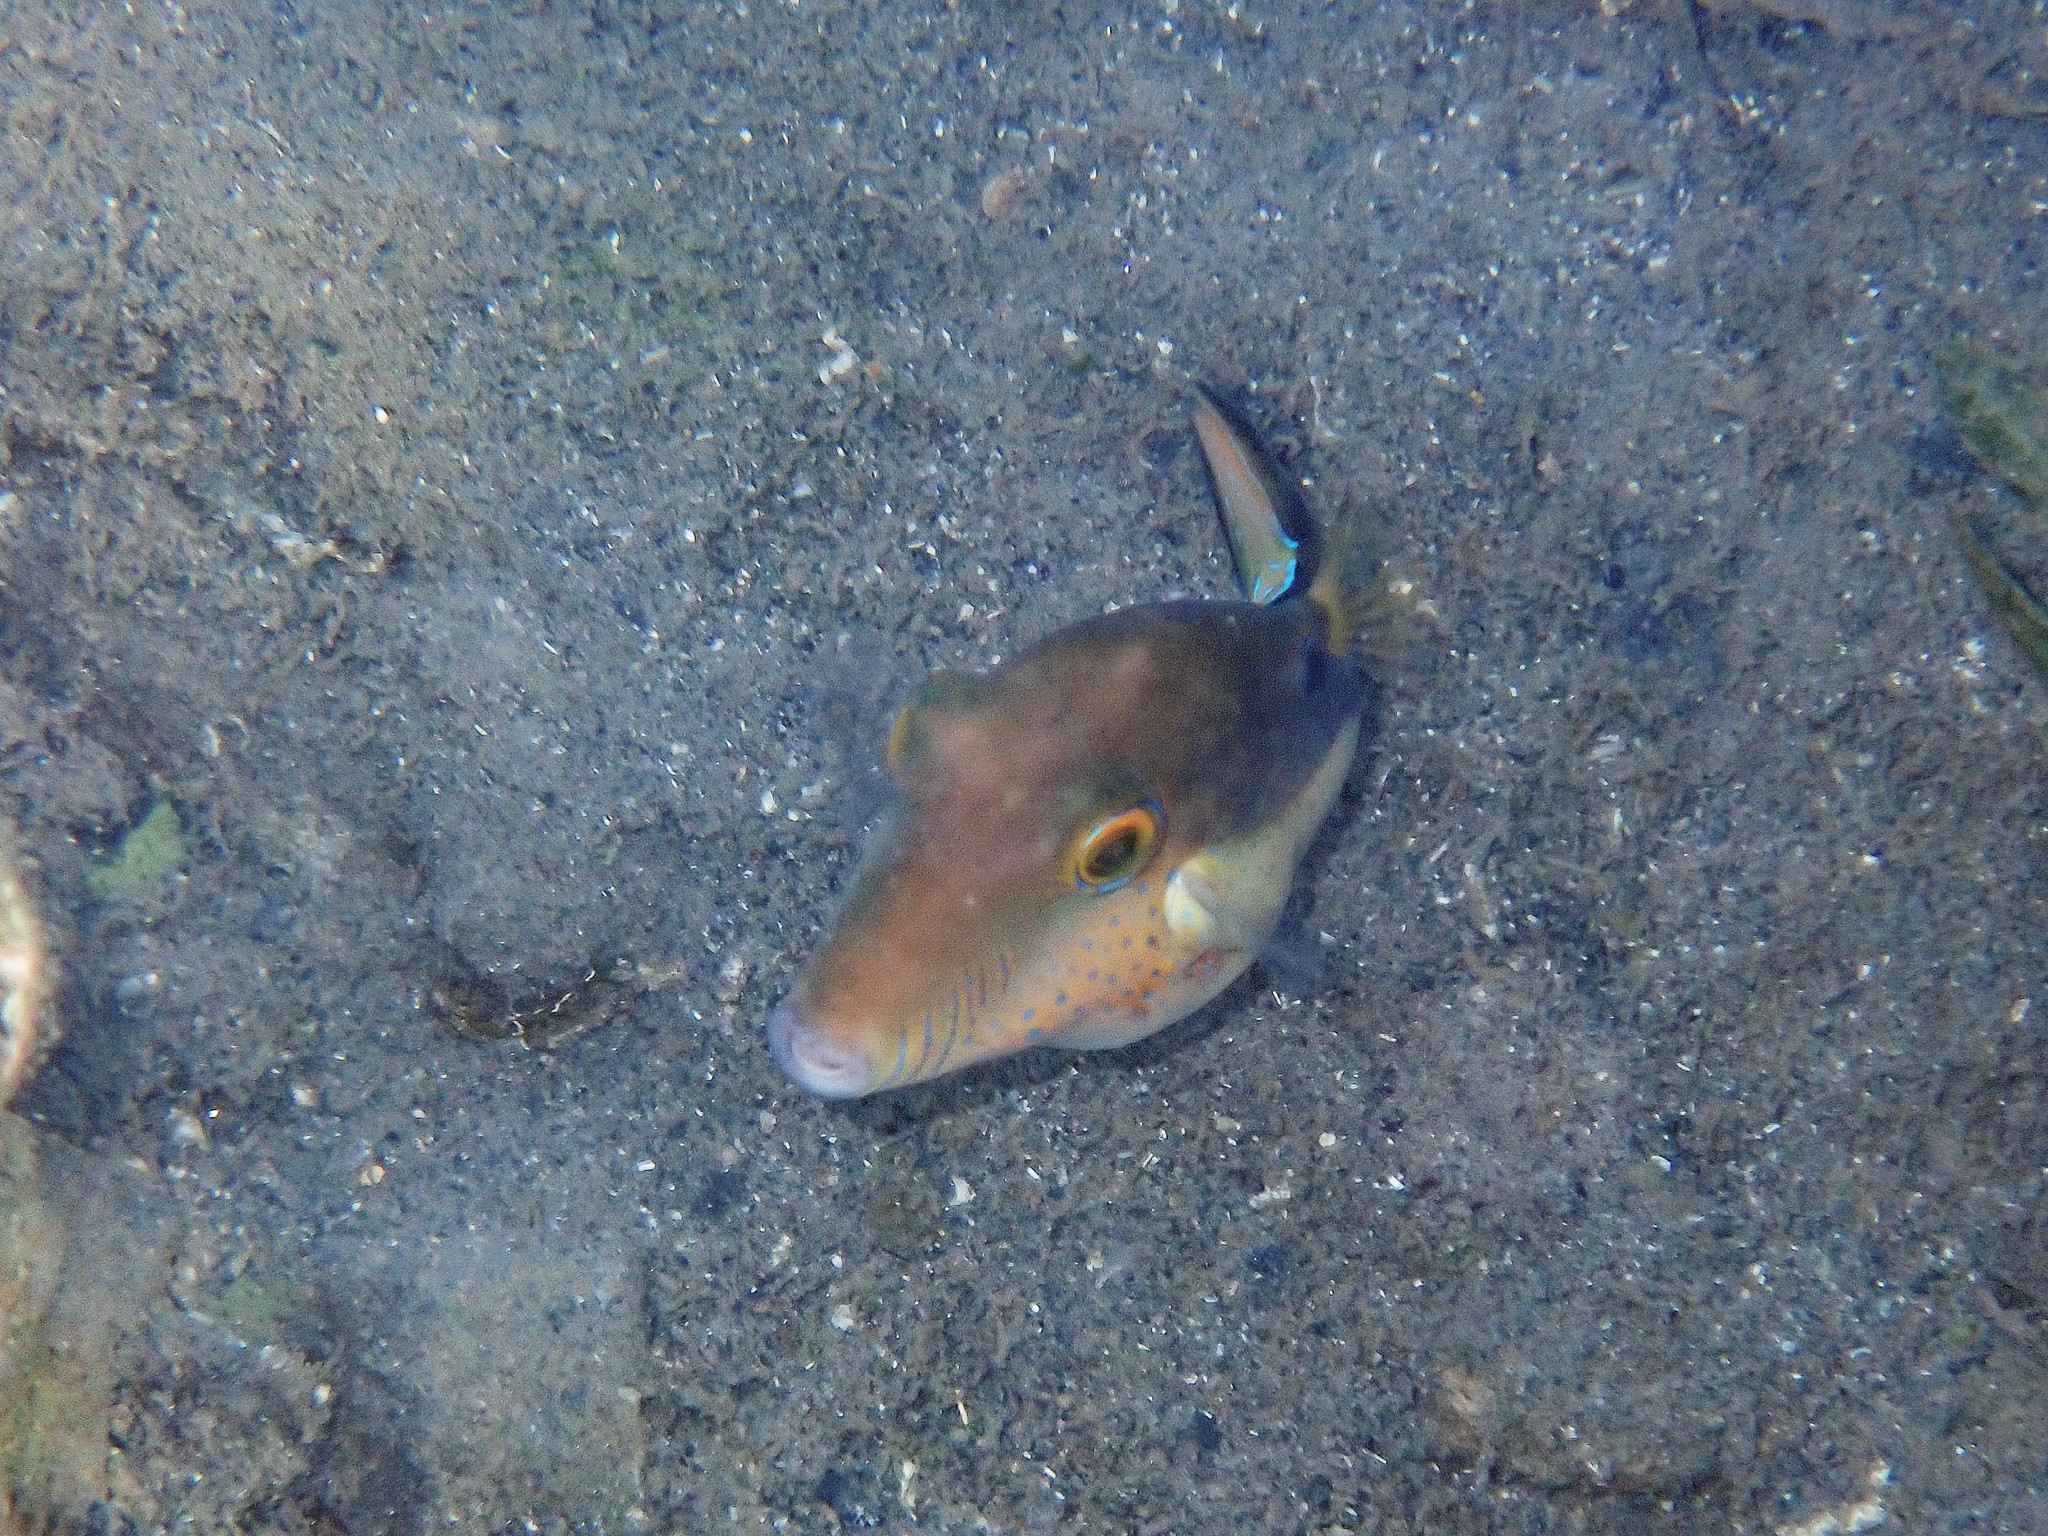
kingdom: Animalia
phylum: Chordata
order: Tetraodontiformes
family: Tetraodontidae
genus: Canthigaster
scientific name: Canthigaster rostrata
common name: Caribbean sharpnose-puffer
